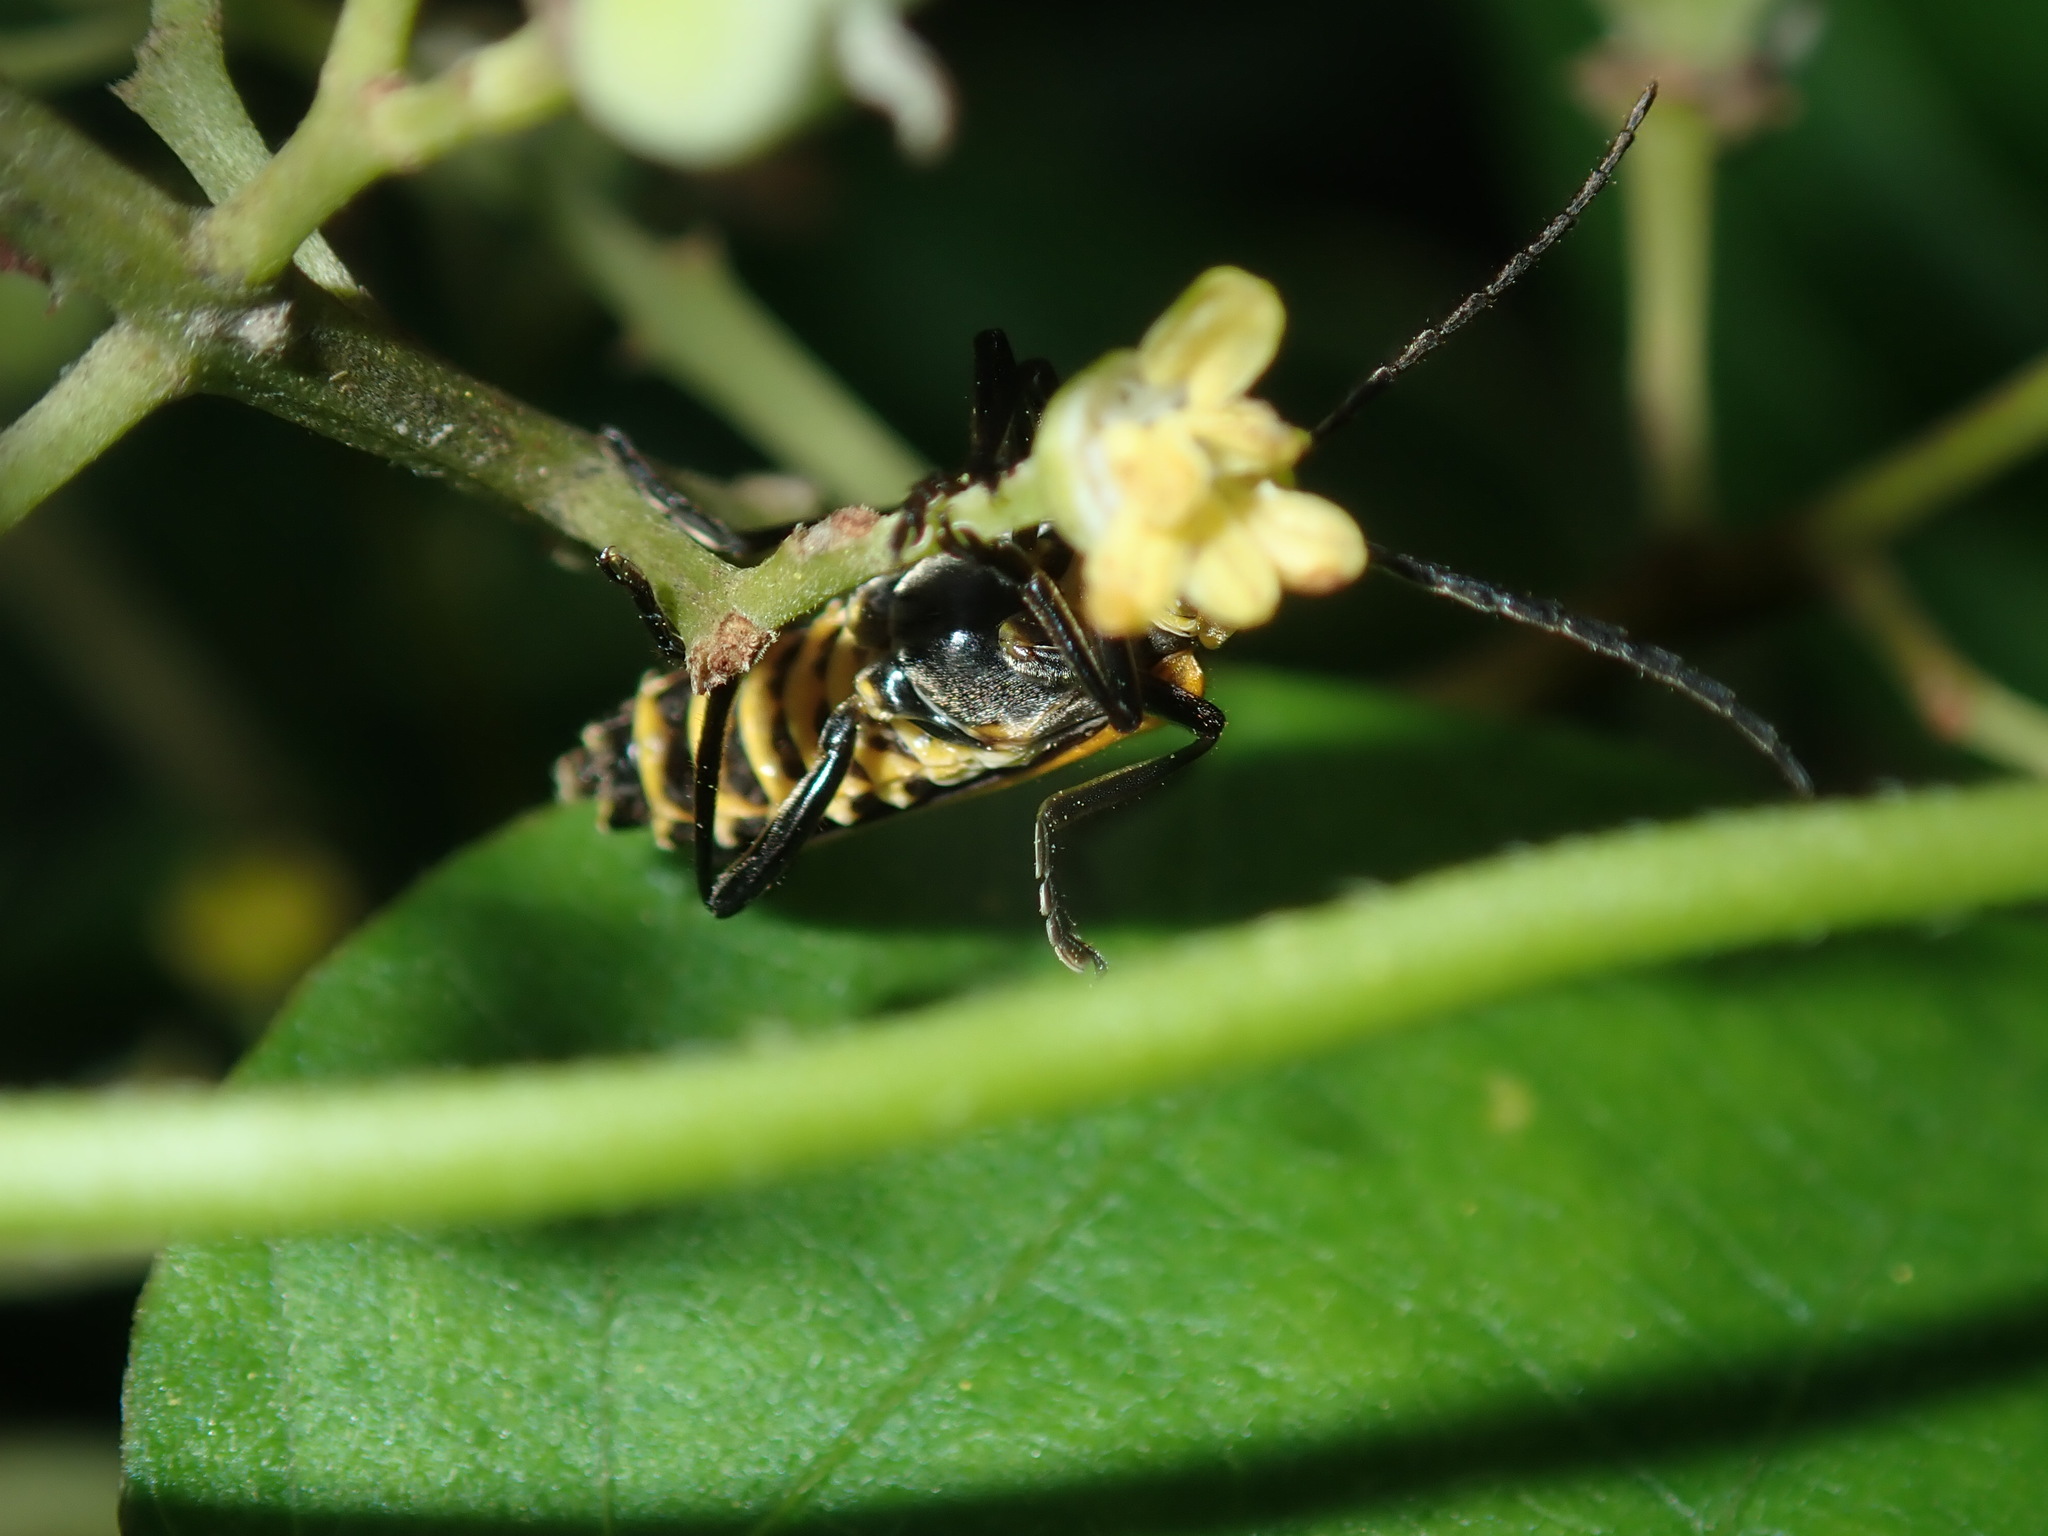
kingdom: Animalia
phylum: Arthropoda
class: Insecta
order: Coleoptera
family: Cantharidae
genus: Chauliognathus
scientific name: Chauliognathus
